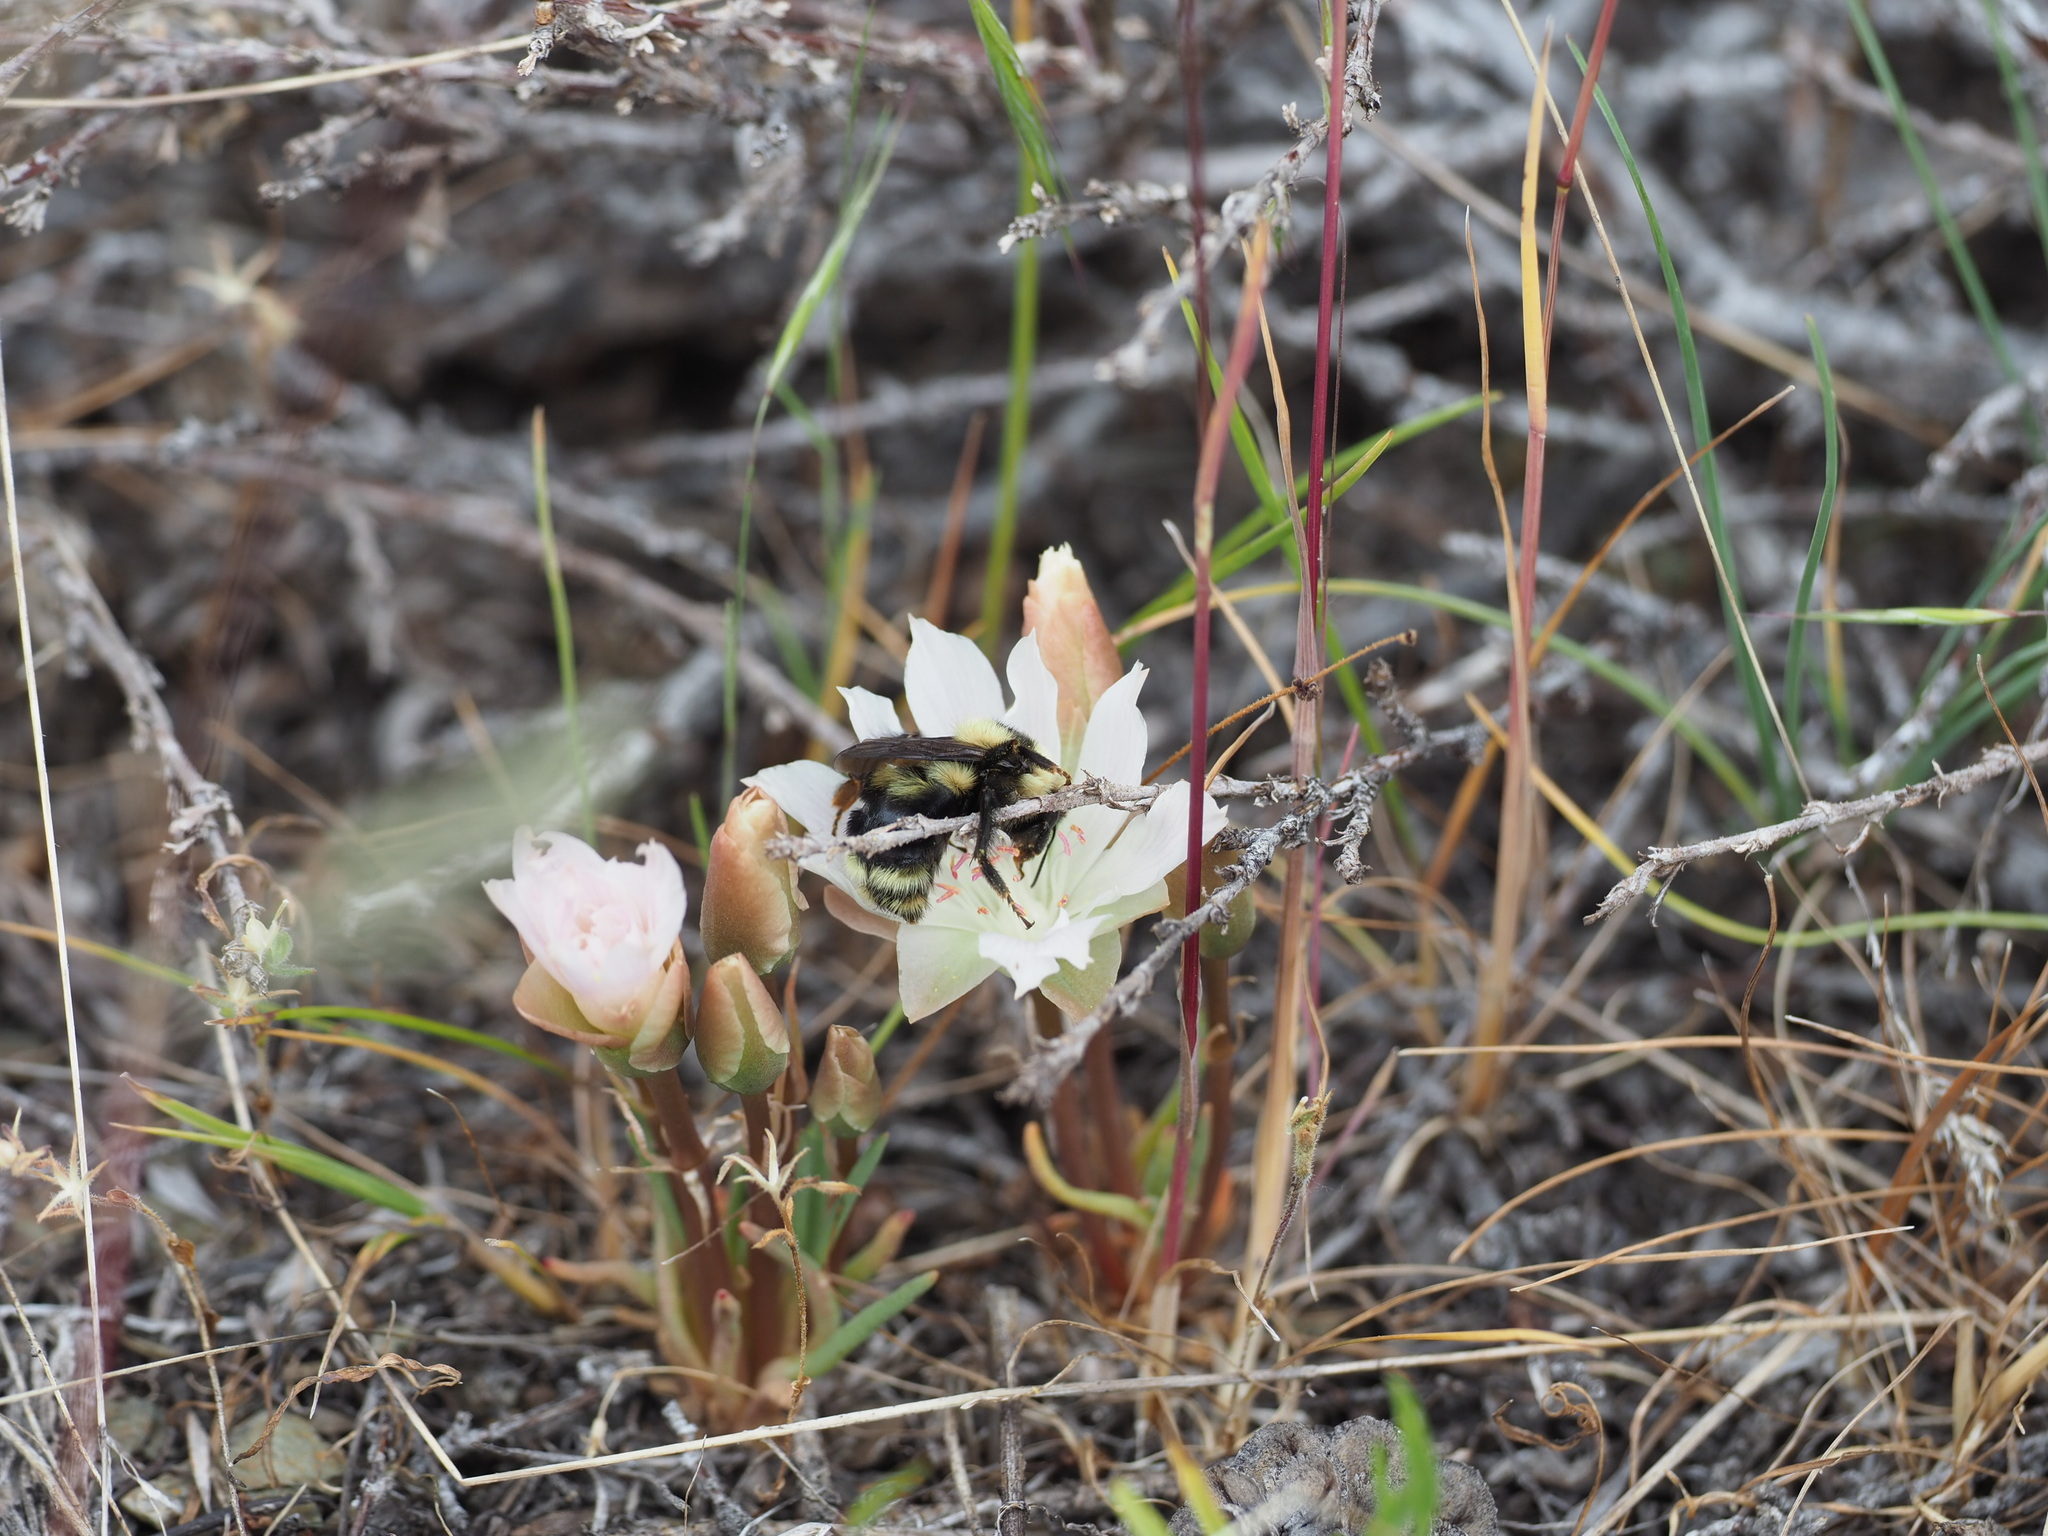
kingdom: Animalia
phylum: Arthropoda
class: Insecta
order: Hymenoptera
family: Apidae
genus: Bombus
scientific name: Bombus rufocinctus
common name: Red-belted bumble bee
